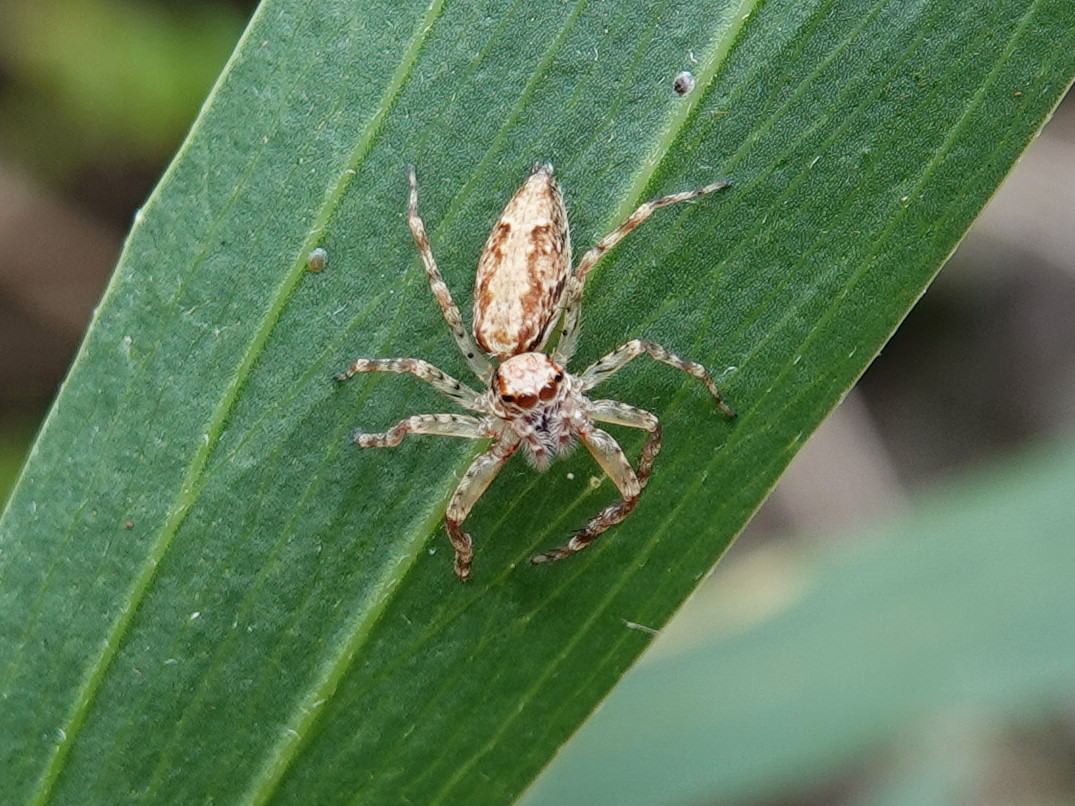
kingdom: Animalia
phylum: Arthropoda
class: Arachnida
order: Araneae
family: Salticidae
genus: Helpis
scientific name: Helpis minitabunda
